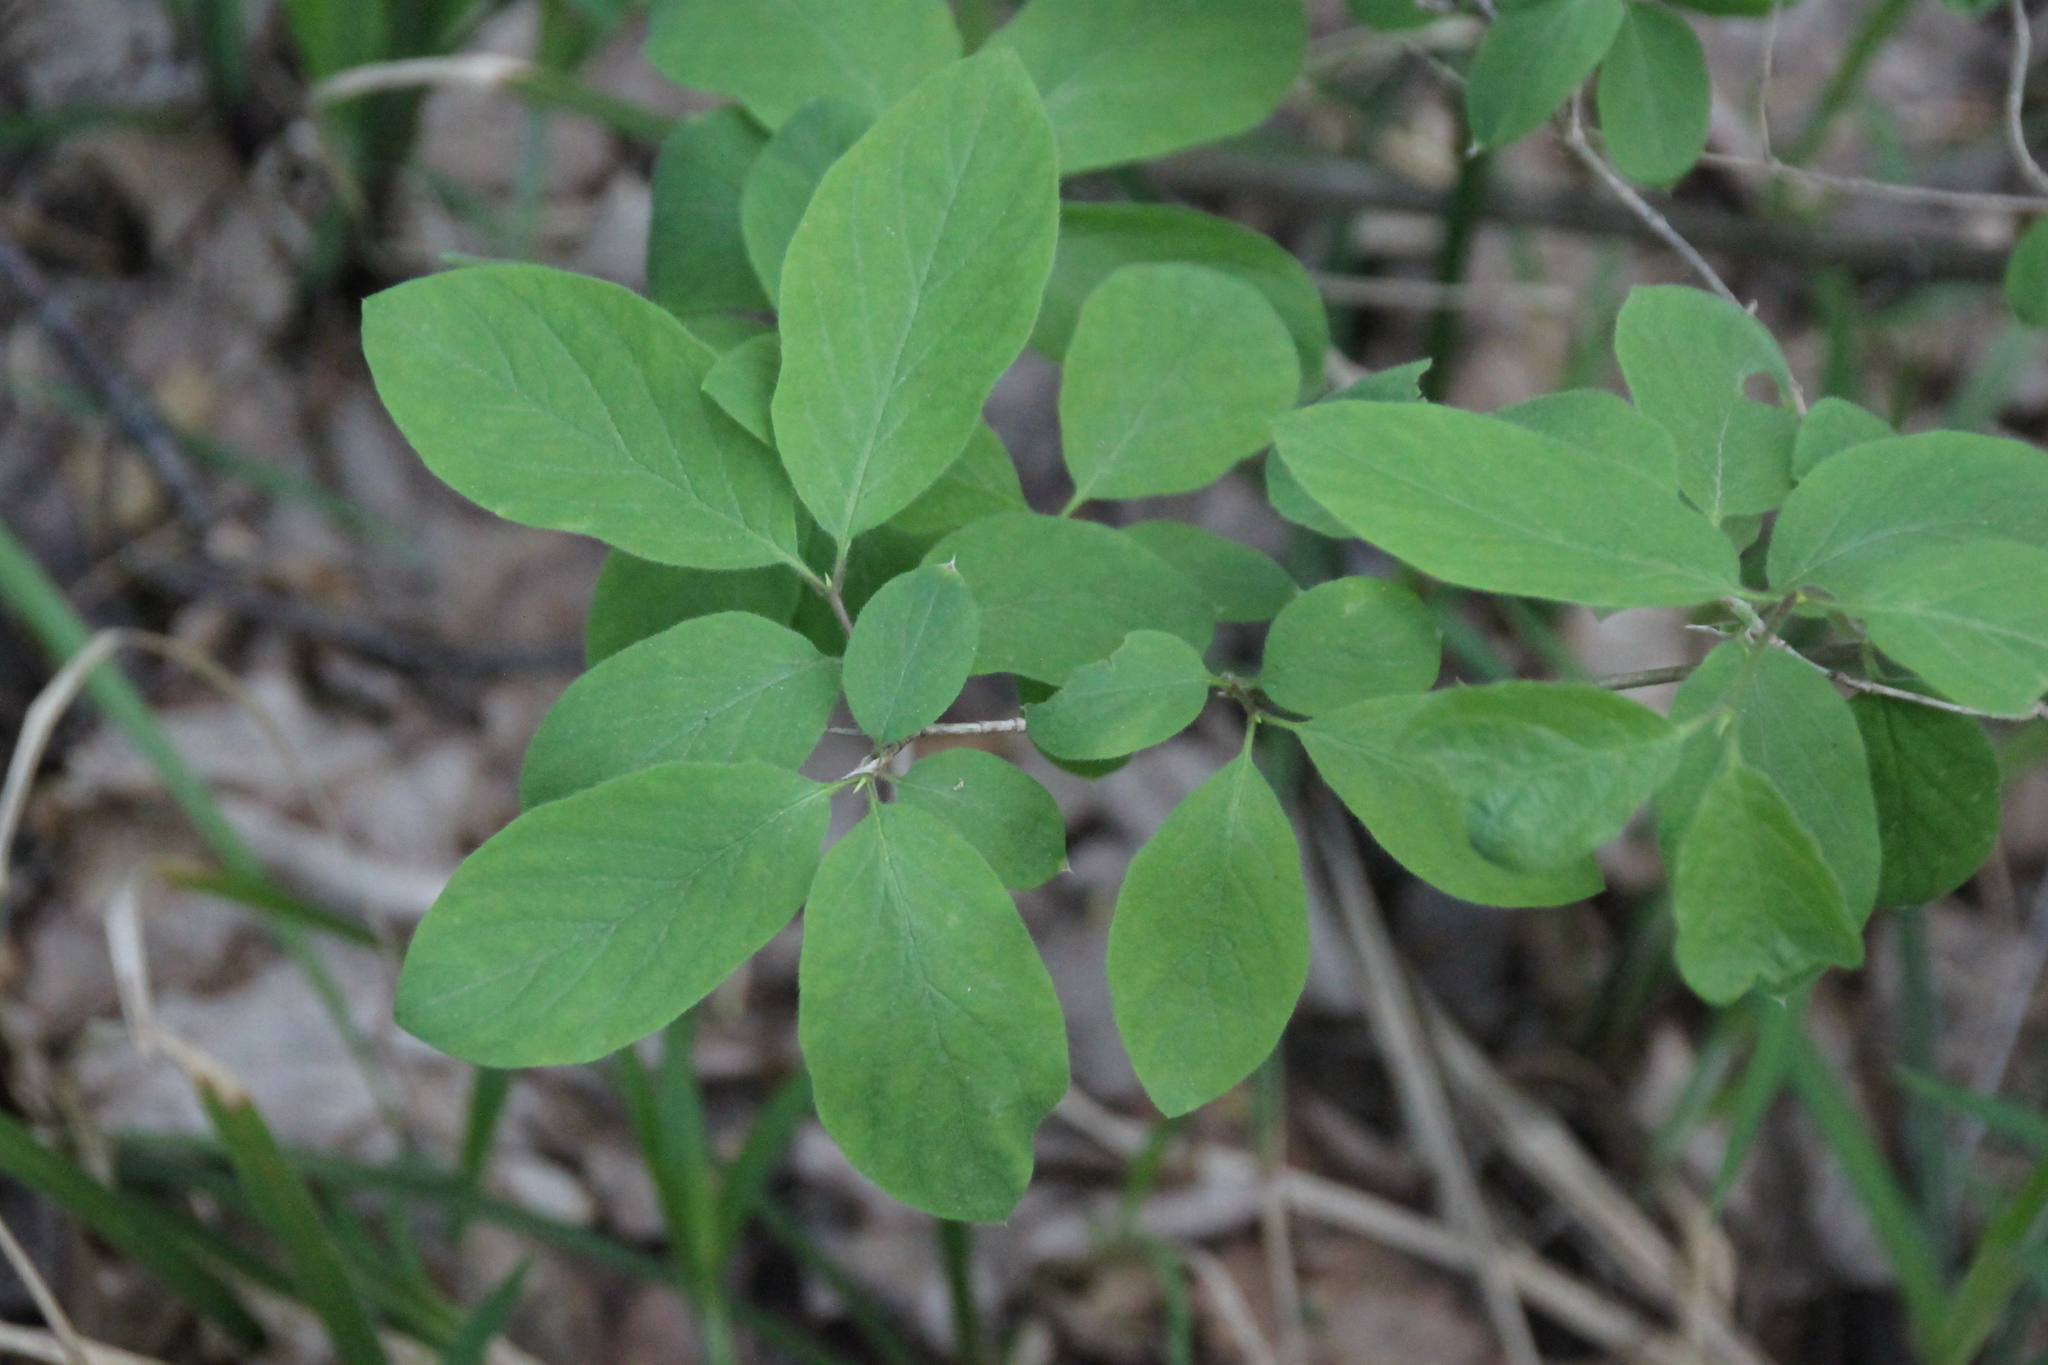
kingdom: Plantae
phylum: Tracheophyta
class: Magnoliopsida
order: Dipsacales
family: Caprifoliaceae
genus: Lonicera
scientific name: Lonicera xylosteum
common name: Fly honeysuckle
